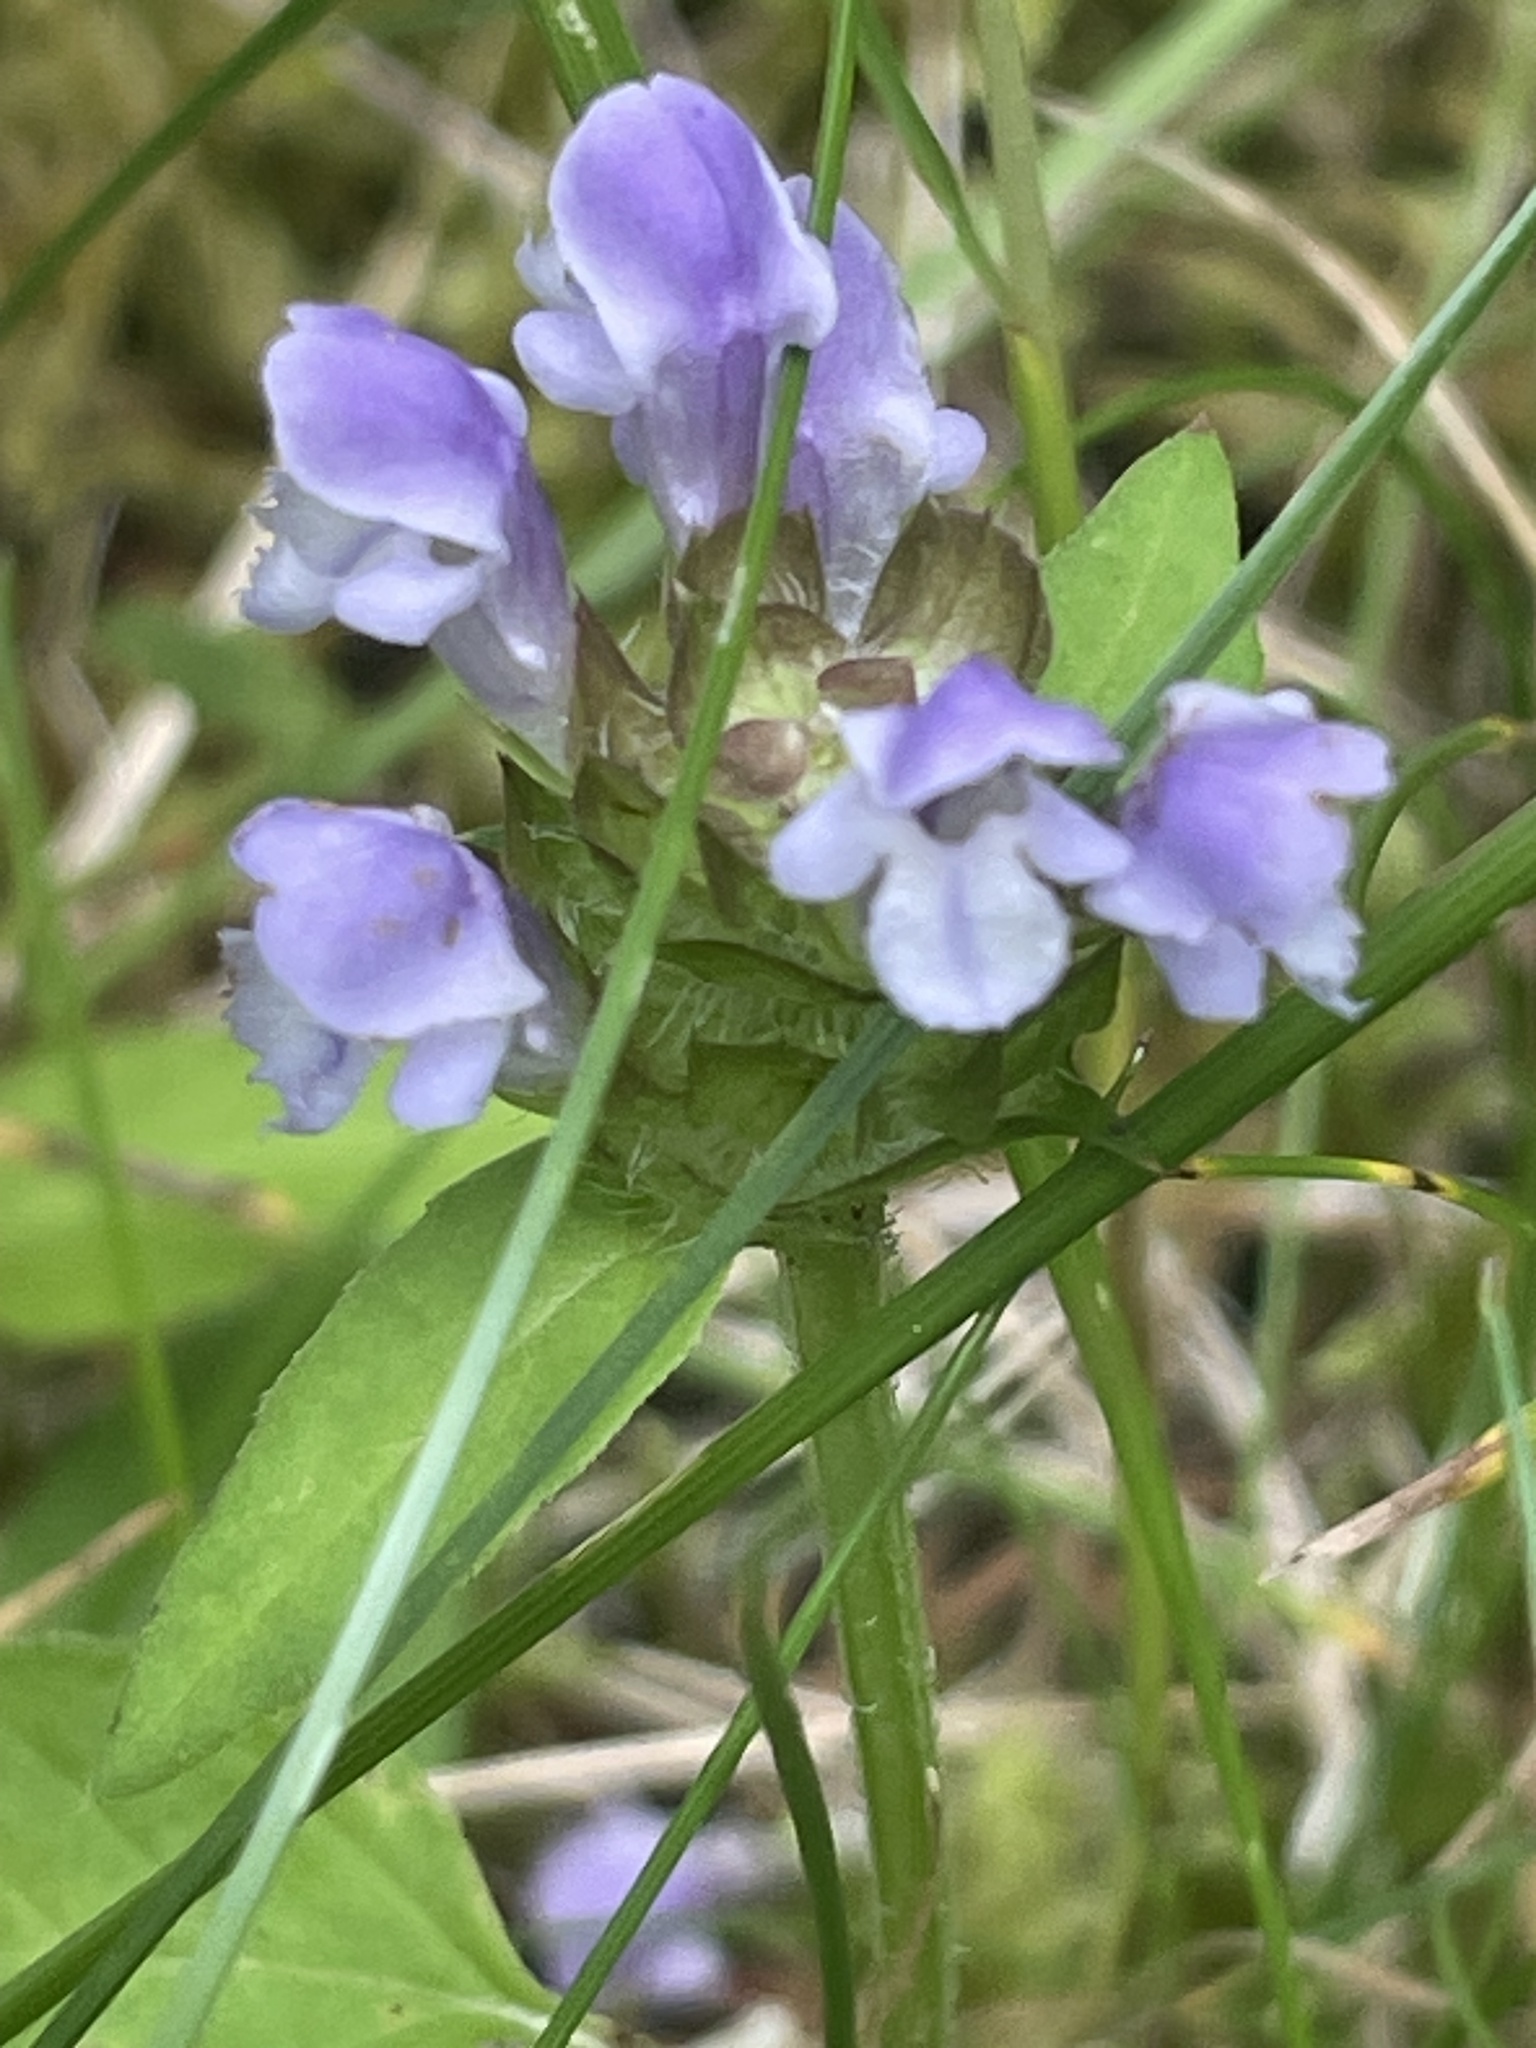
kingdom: Plantae
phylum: Tracheophyta
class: Magnoliopsida
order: Lamiales
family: Lamiaceae
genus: Prunella
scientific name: Prunella vulgaris
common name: Heal-all
